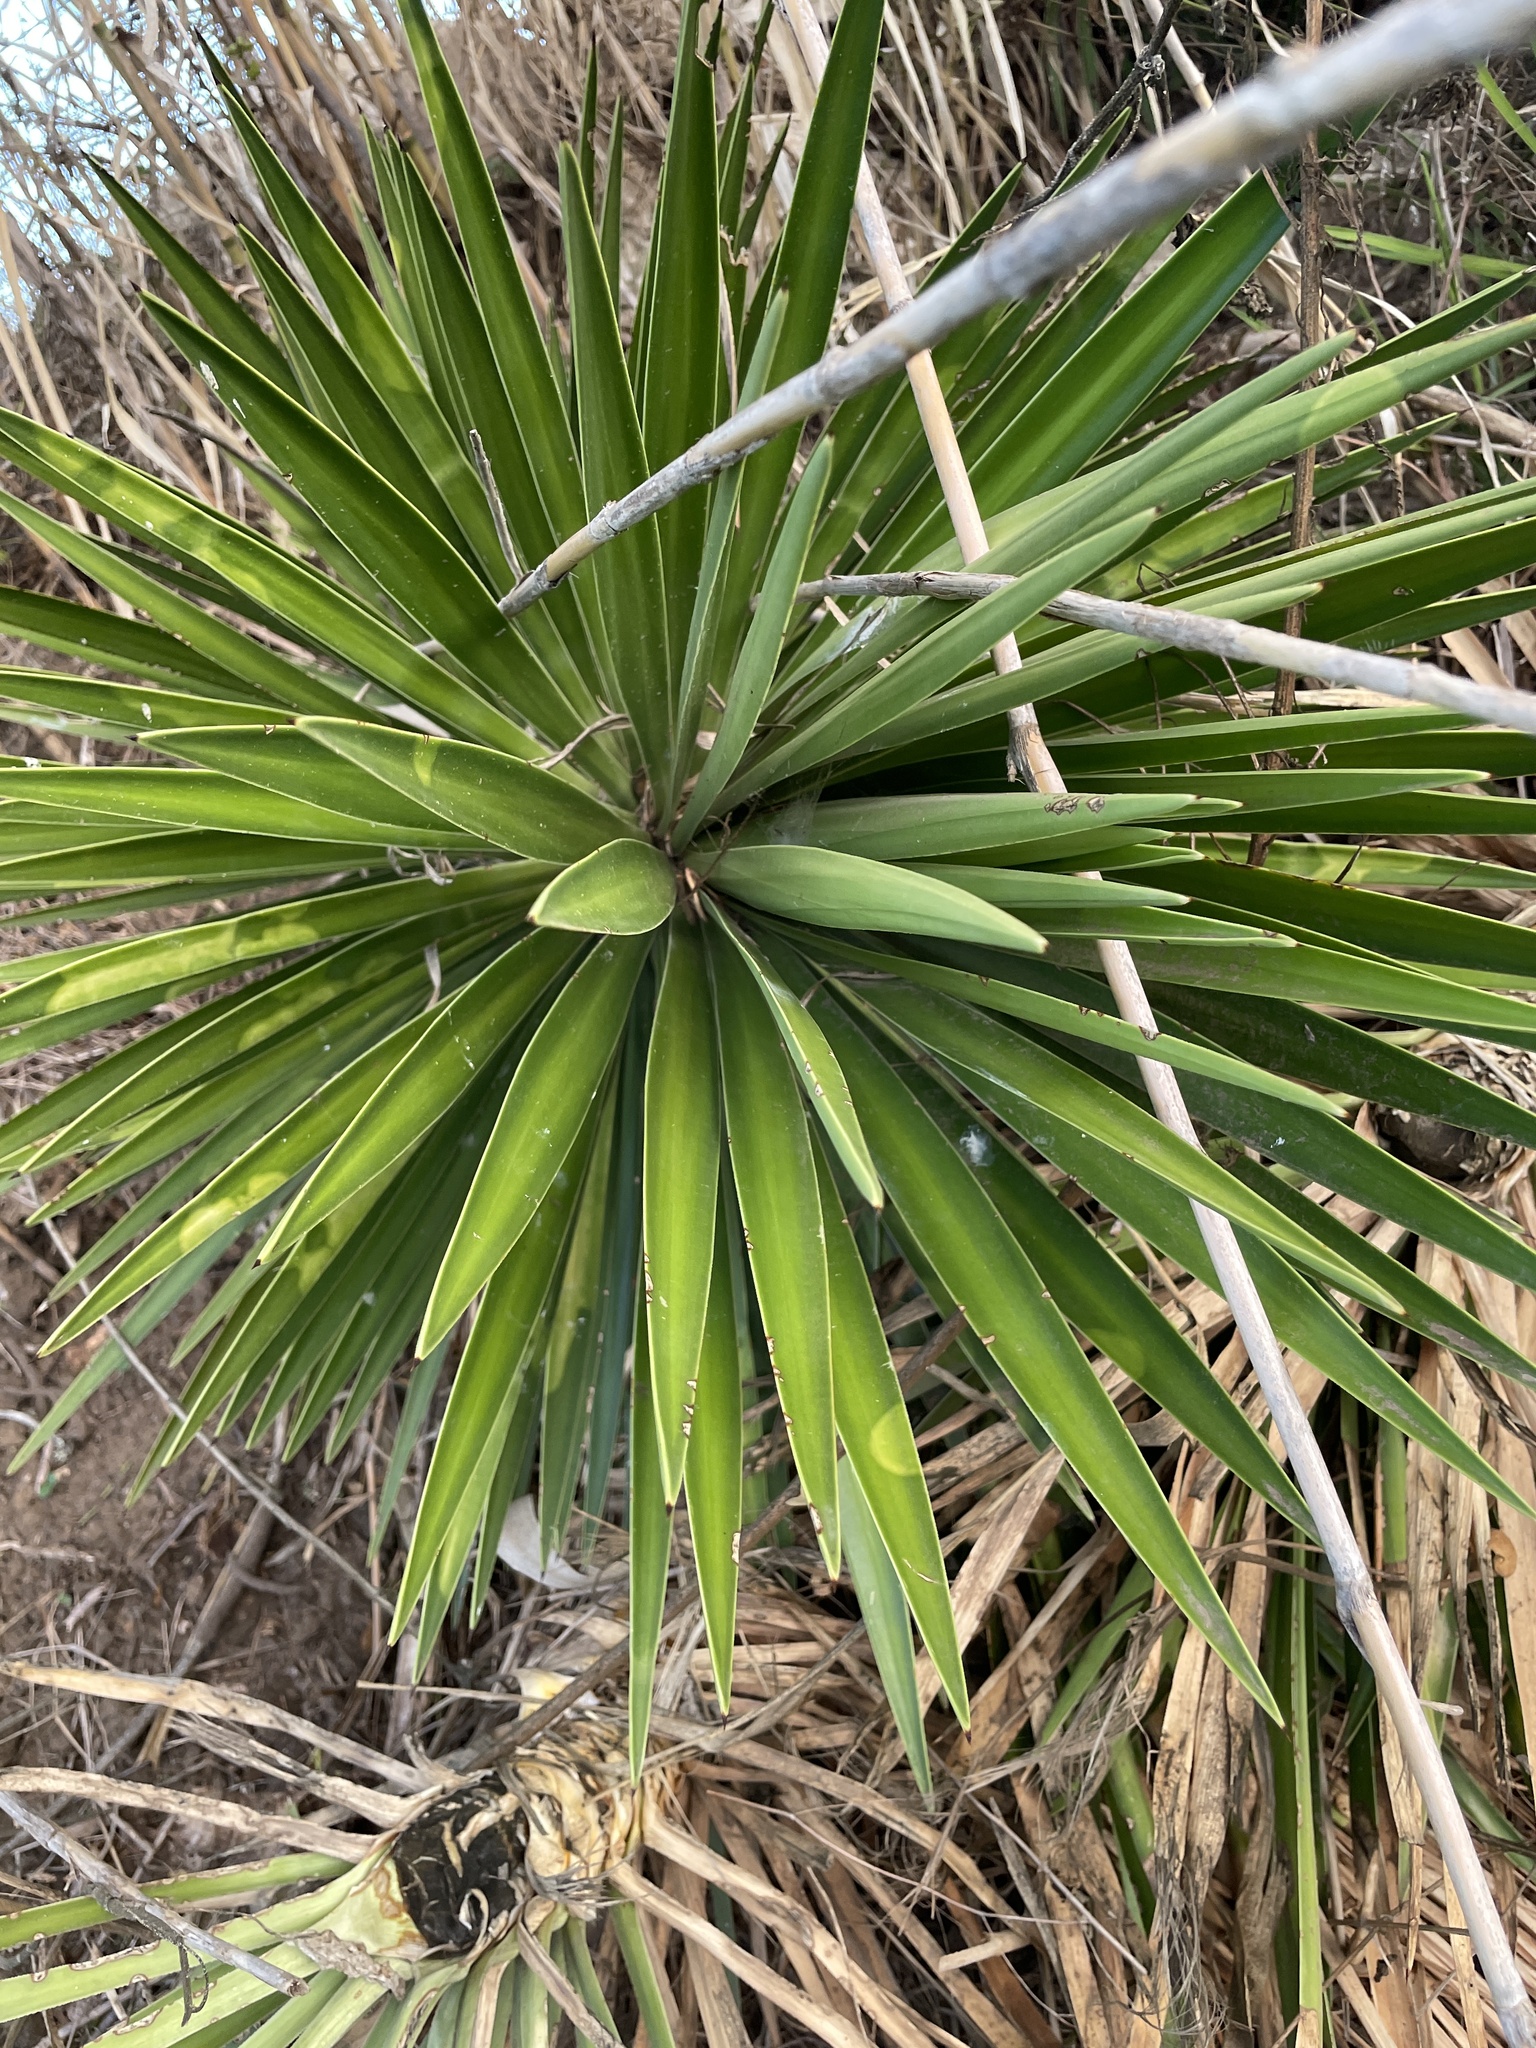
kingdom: Plantae
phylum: Tracheophyta
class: Liliopsida
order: Asparagales
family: Asparagaceae
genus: Yucca
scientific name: Yucca aloifolia
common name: Aloe yucca
